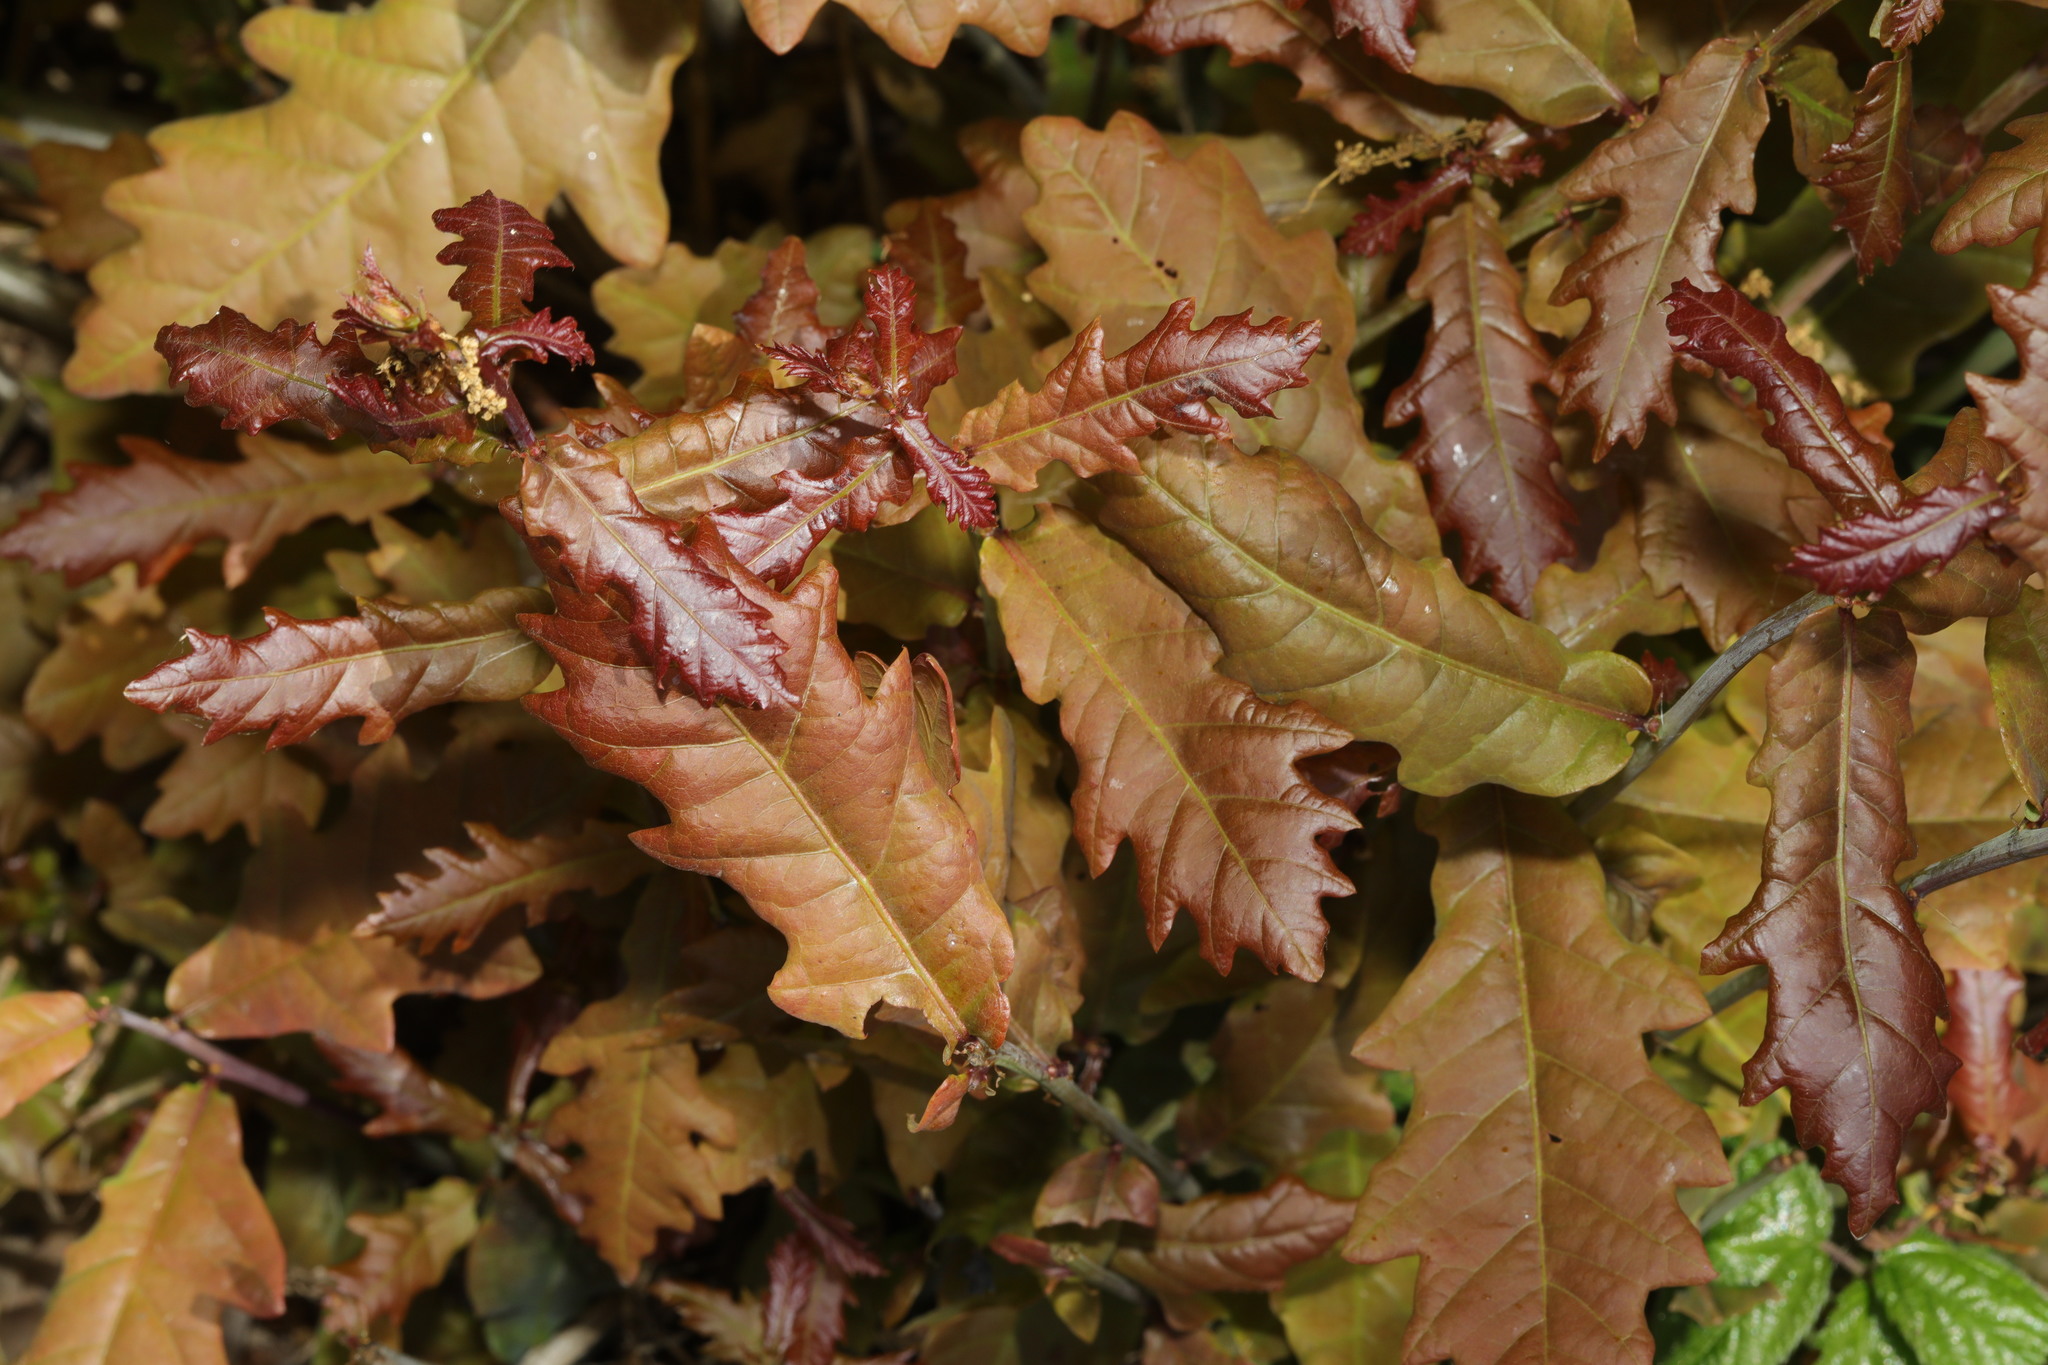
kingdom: Plantae
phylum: Tracheophyta
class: Magnoliopsida
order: Fagales
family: Fagaceae
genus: Quercus
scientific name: Quercus robur
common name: Pedunculate oak
